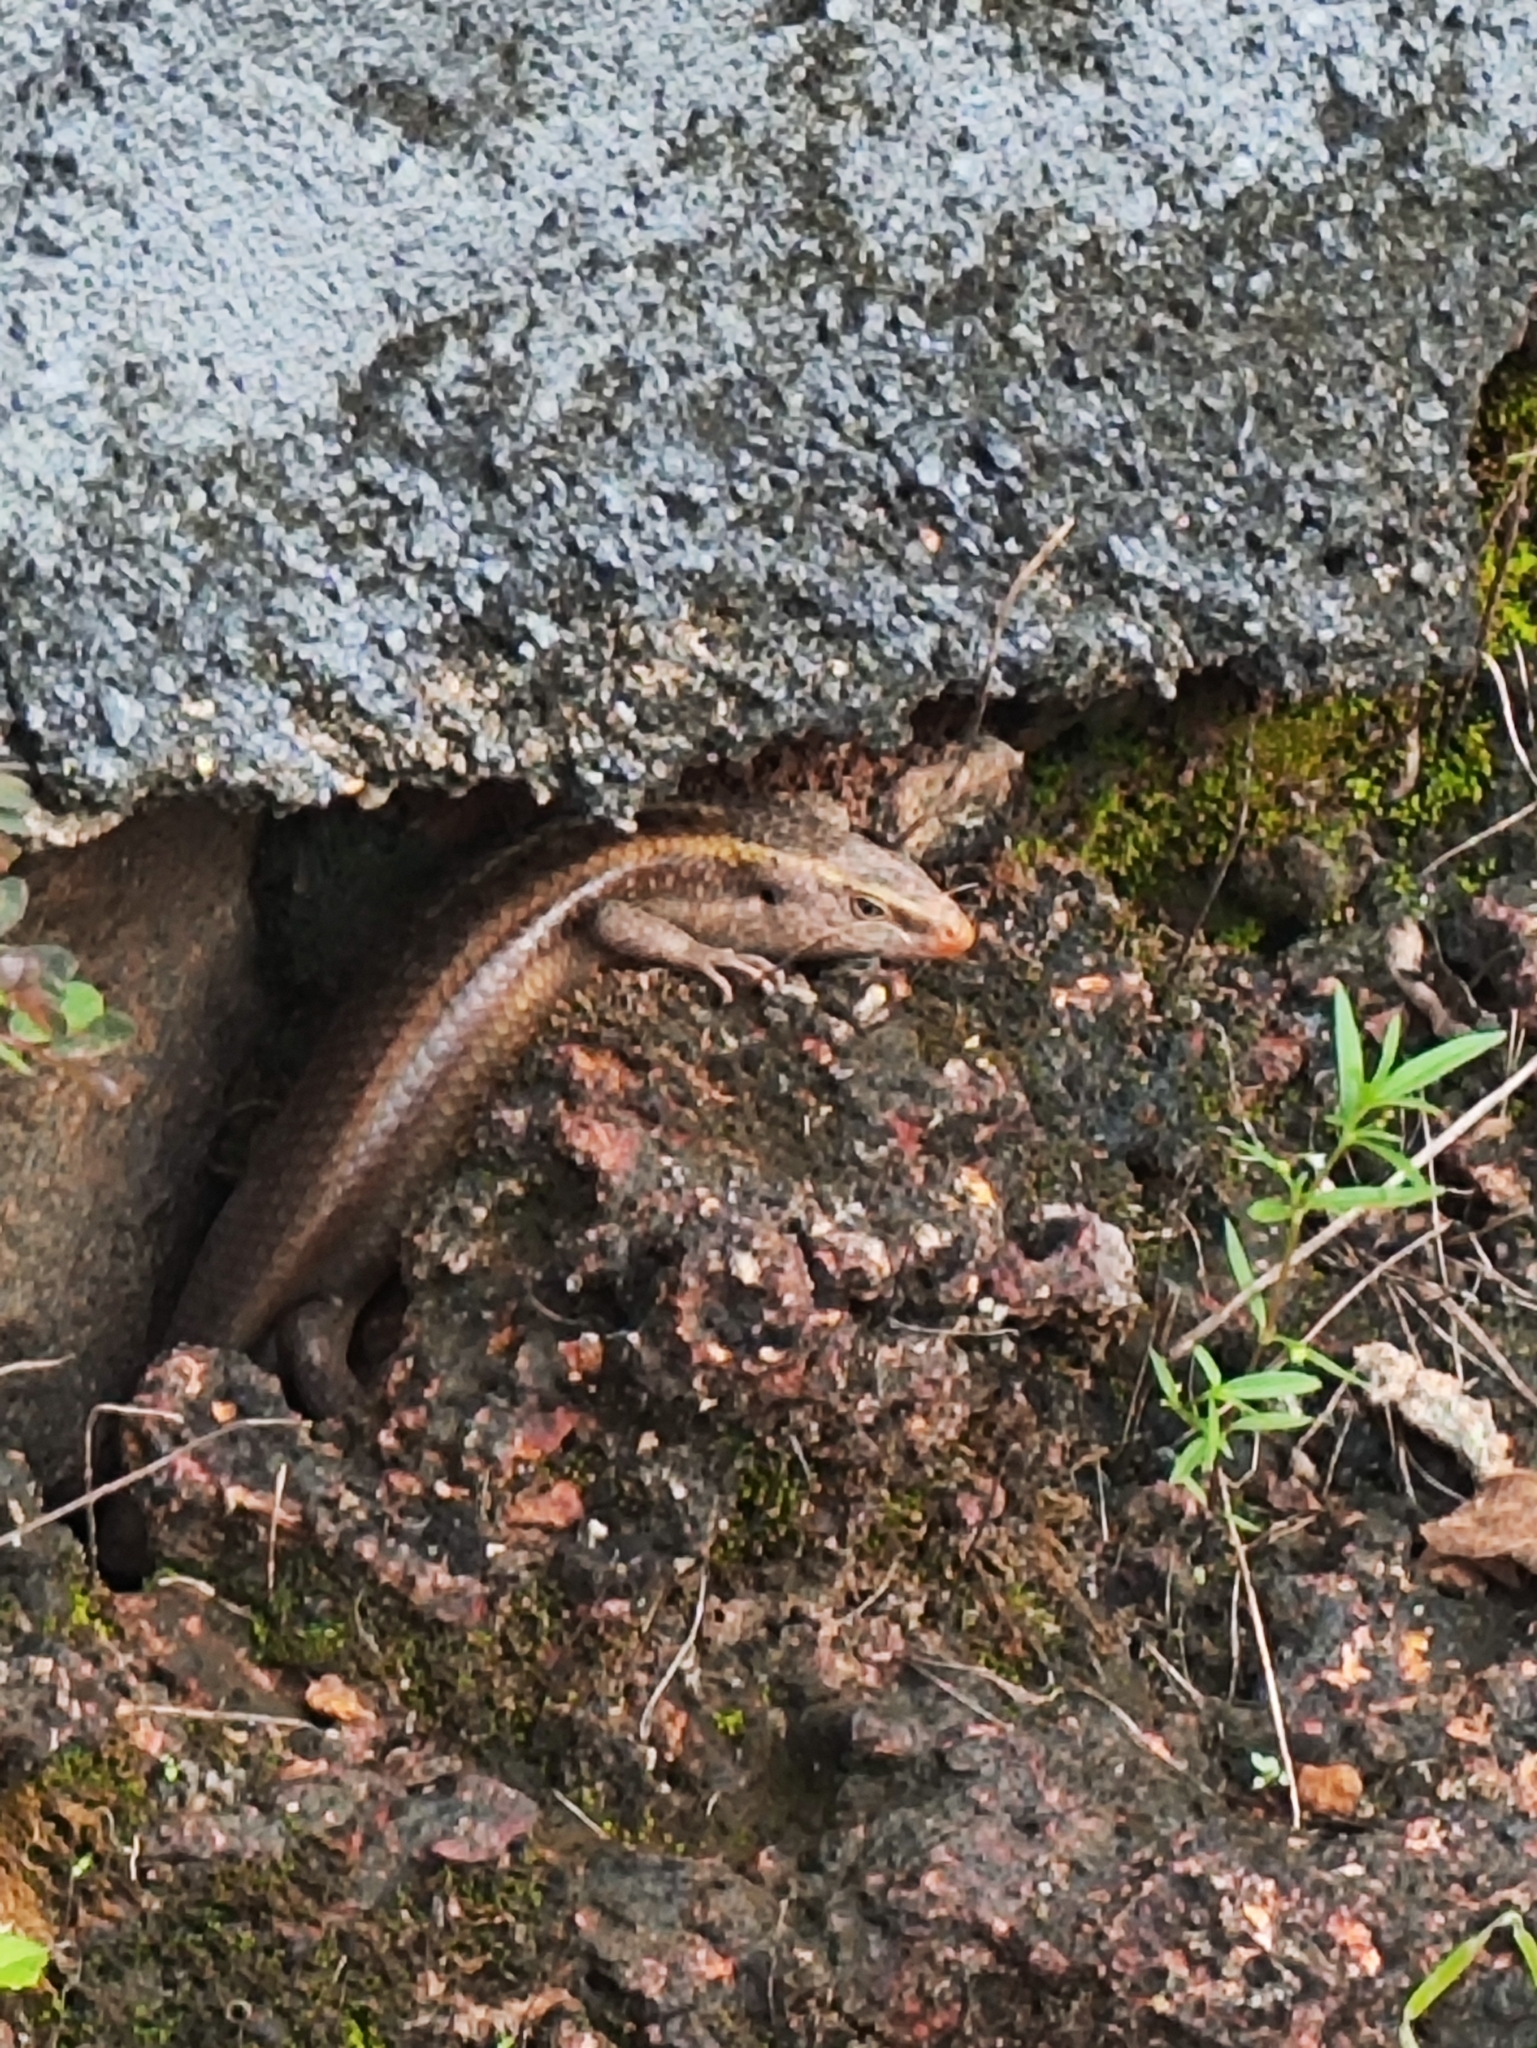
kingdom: Animalia
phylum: Chordata
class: Squamata
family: Scincidae
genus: Eutropis
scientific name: Eutropis carinata
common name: Keeled indian mabuya
